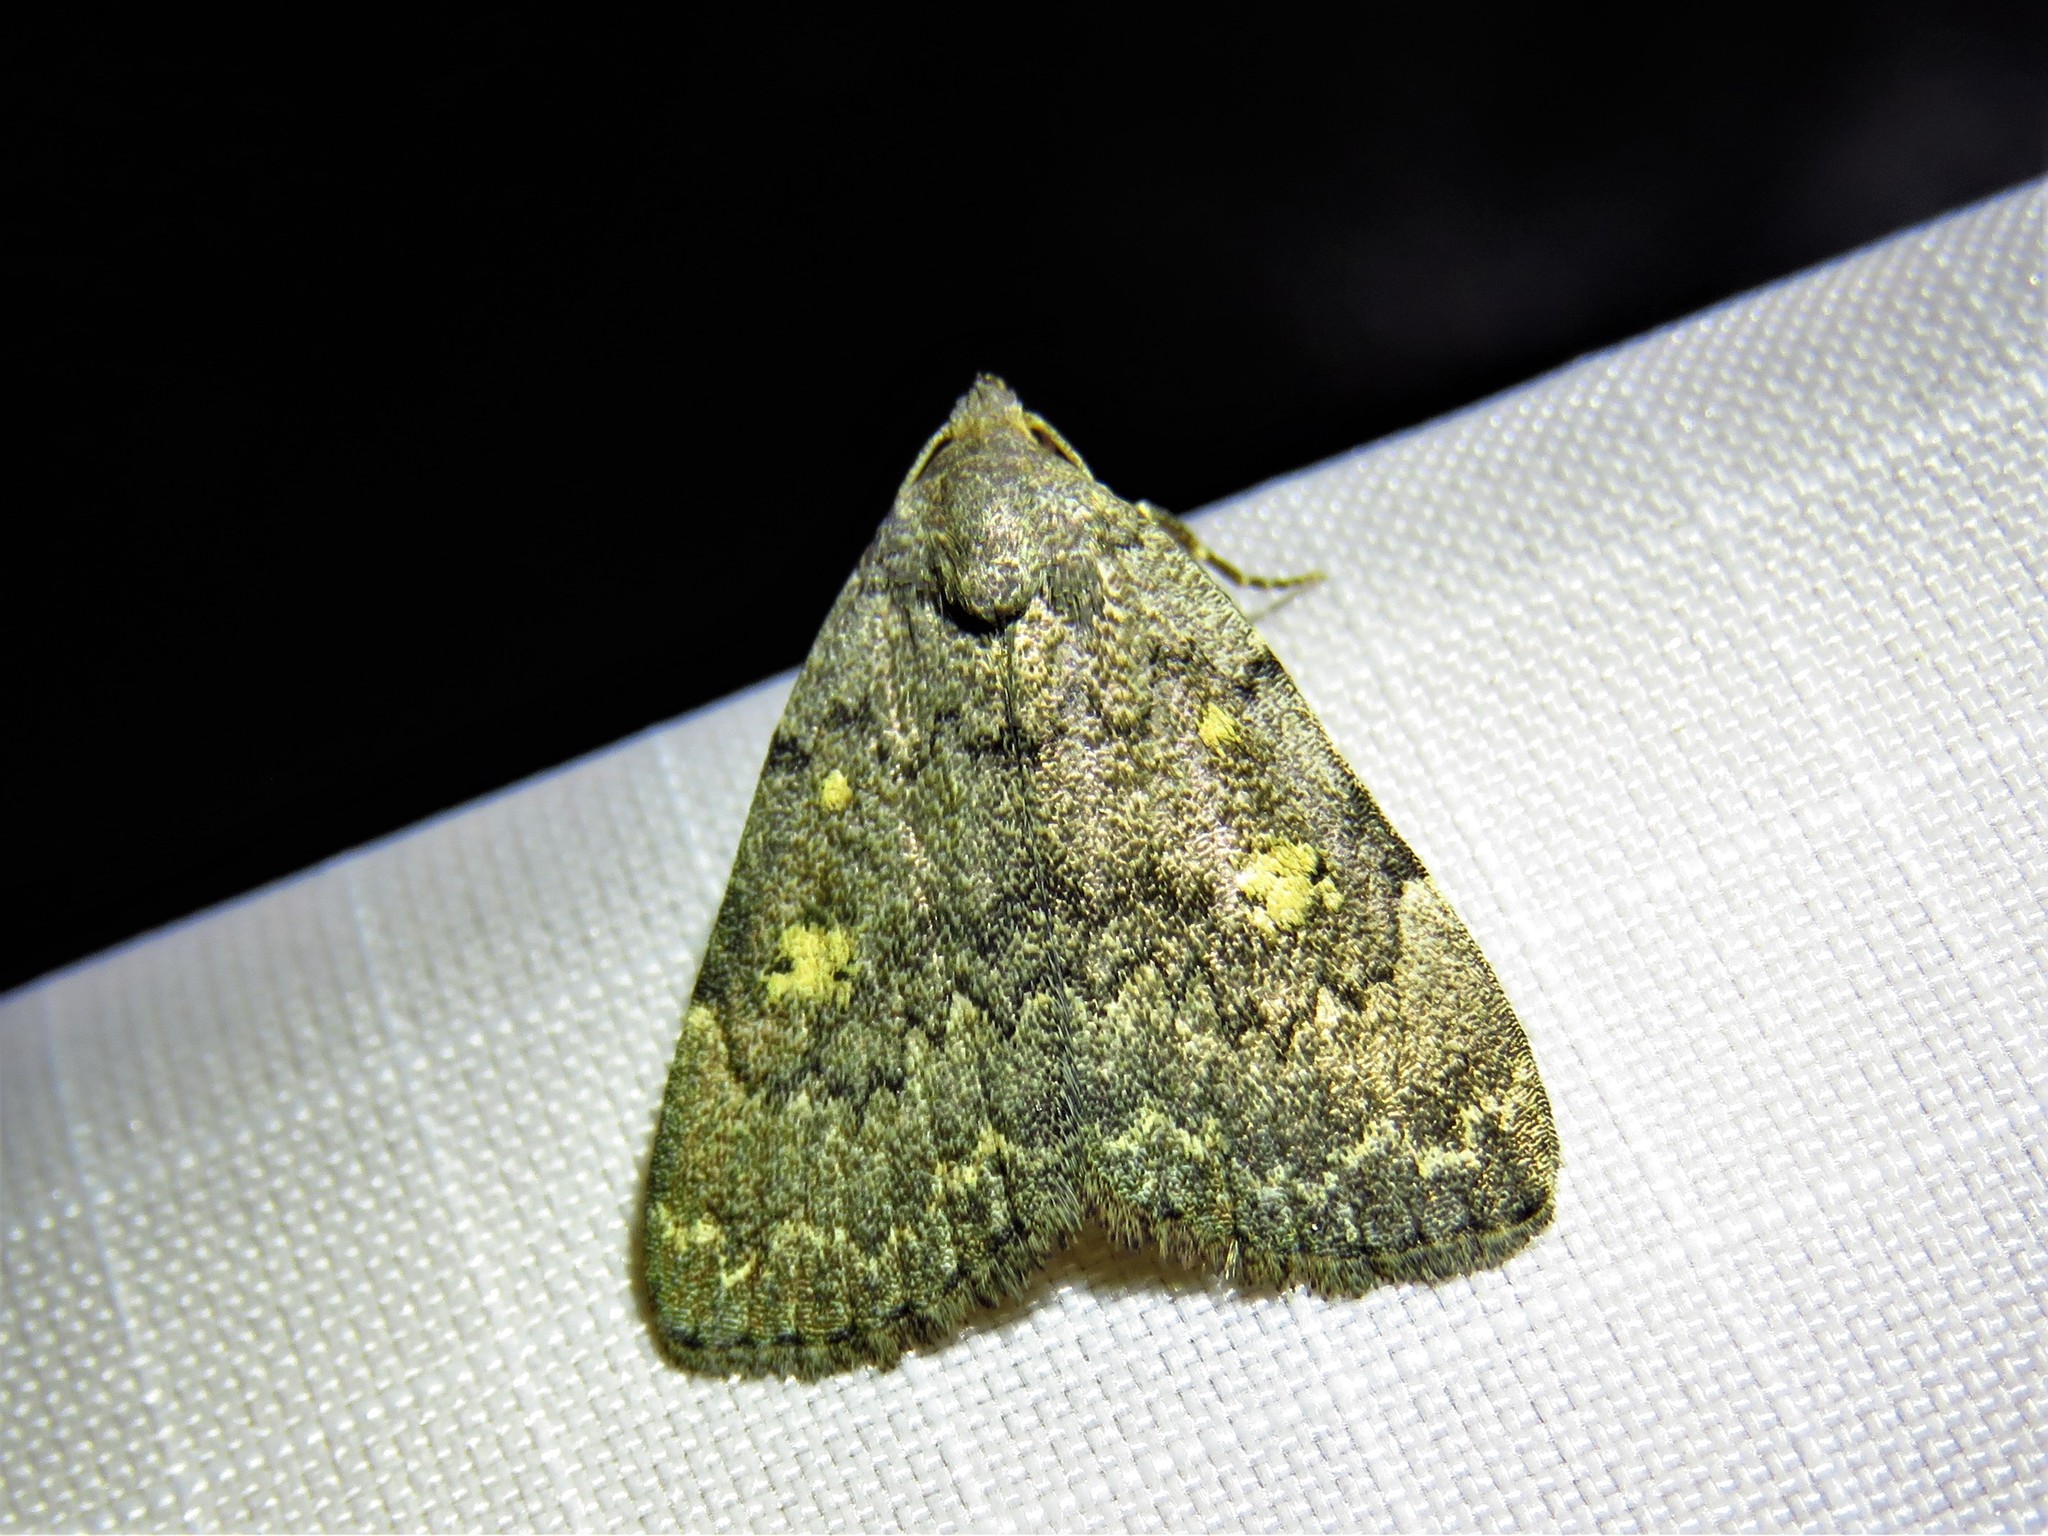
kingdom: Animalia
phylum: Arthropoda
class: Insecta
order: Lepidoptera
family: Erebidae
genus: Idia
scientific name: Idia aemula
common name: Common idia moth
